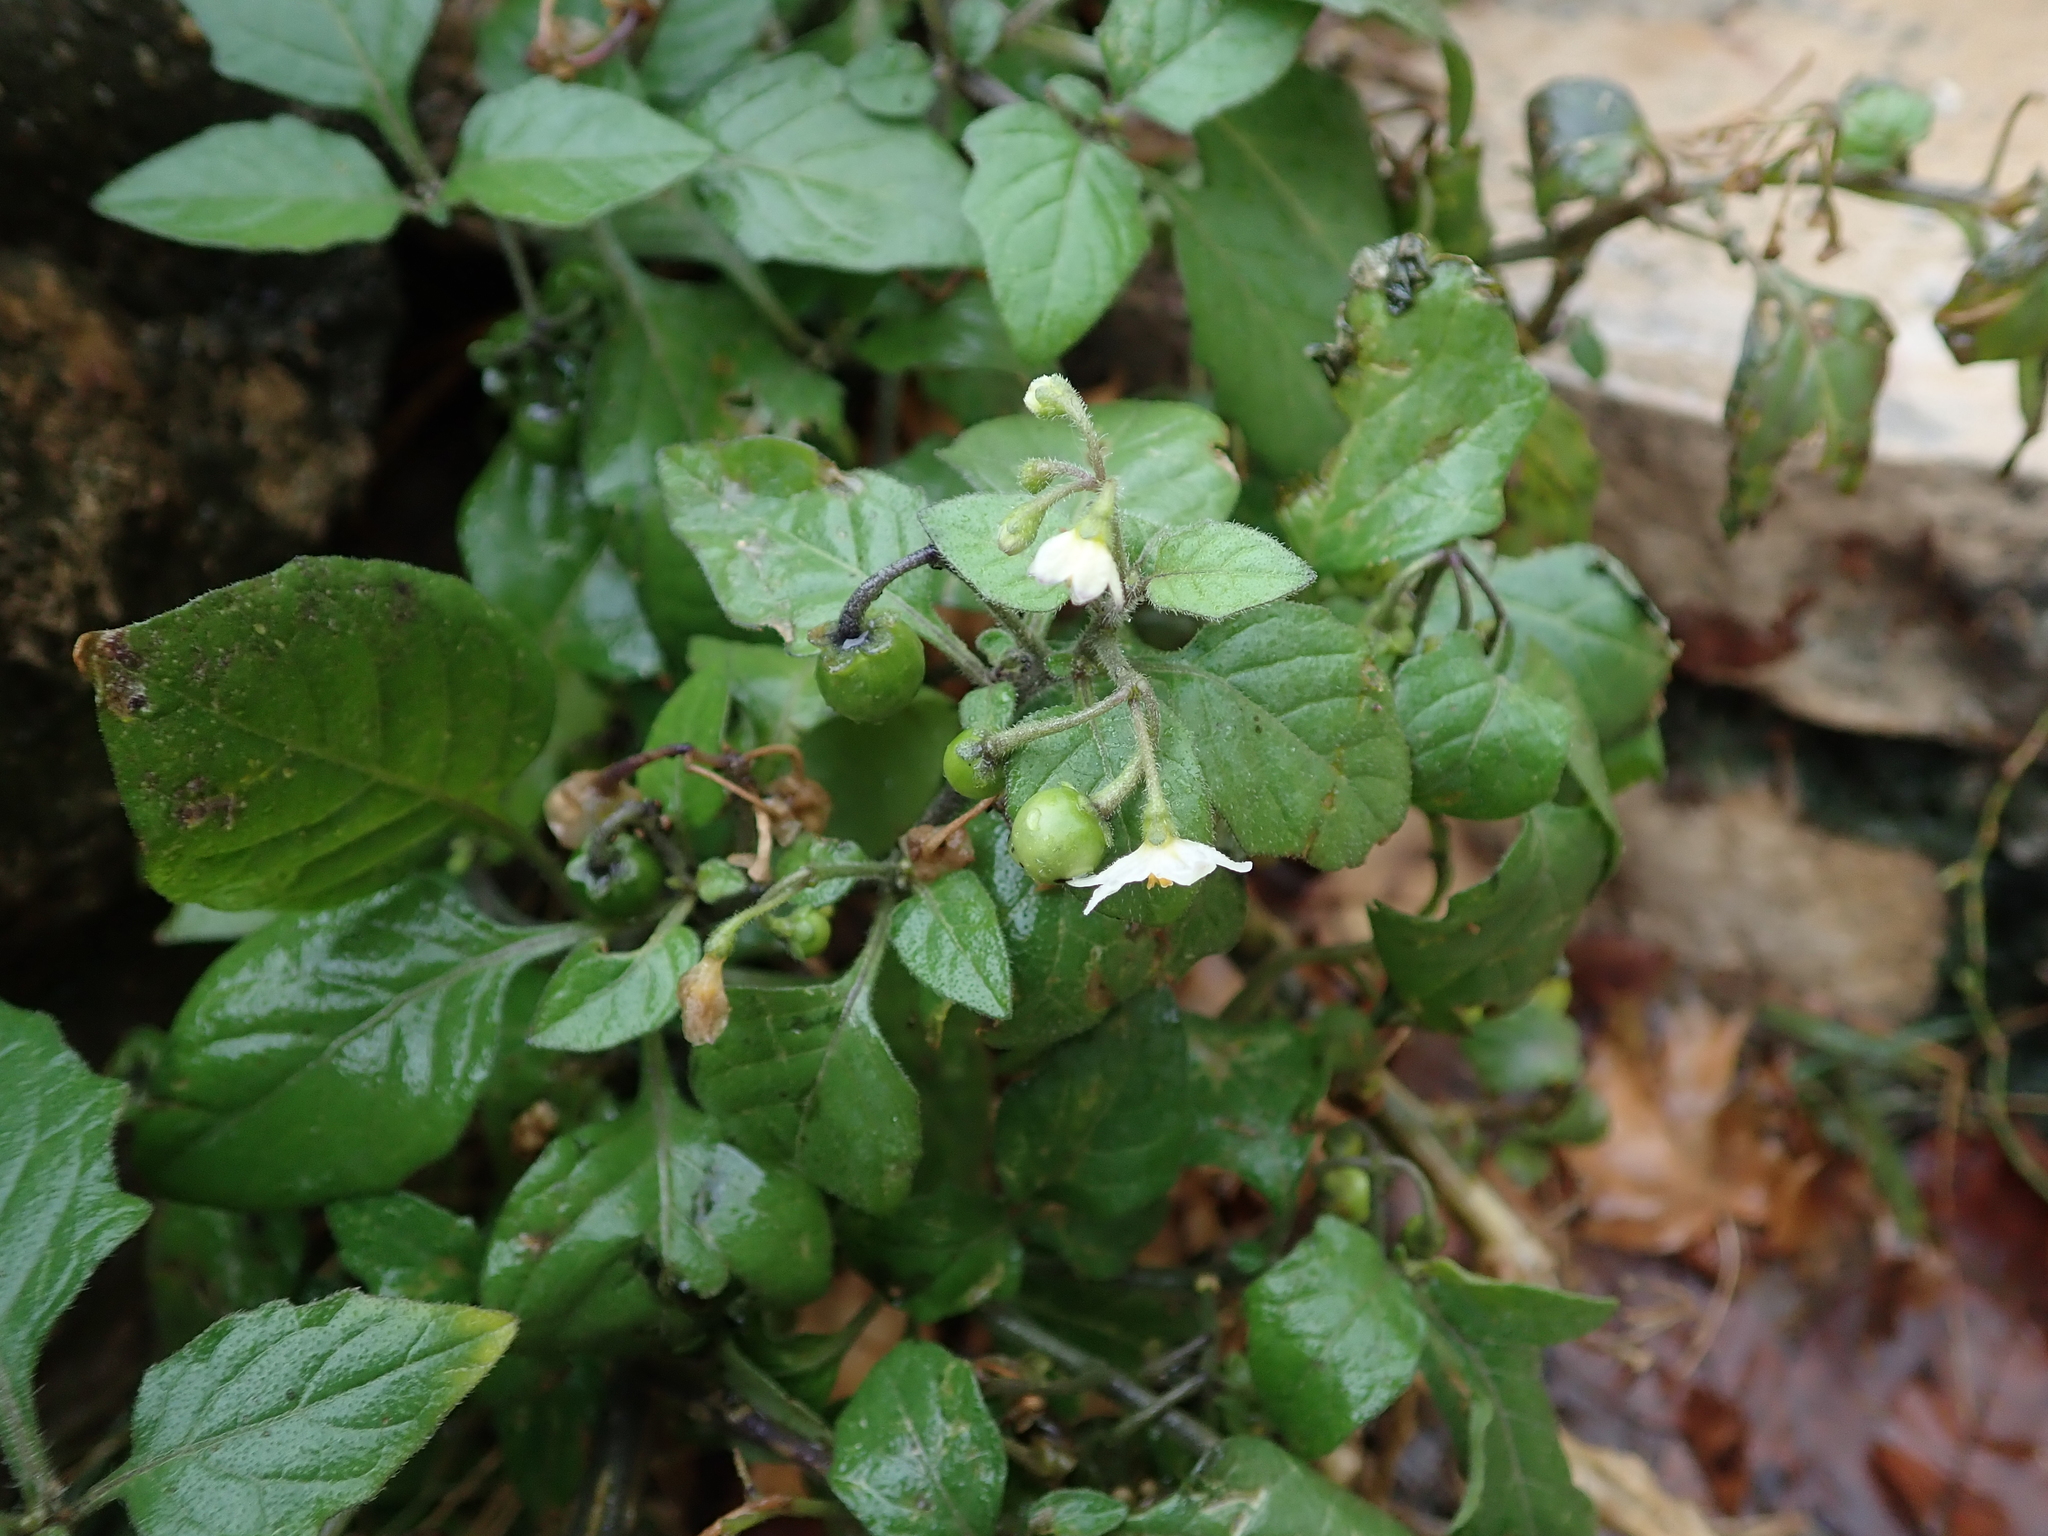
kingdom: Plantae
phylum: Tracheophyta
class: Magnoliopsida
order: Solanales
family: Solanaceae
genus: Solanum
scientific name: Solanum nigrum
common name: Black nightshade
